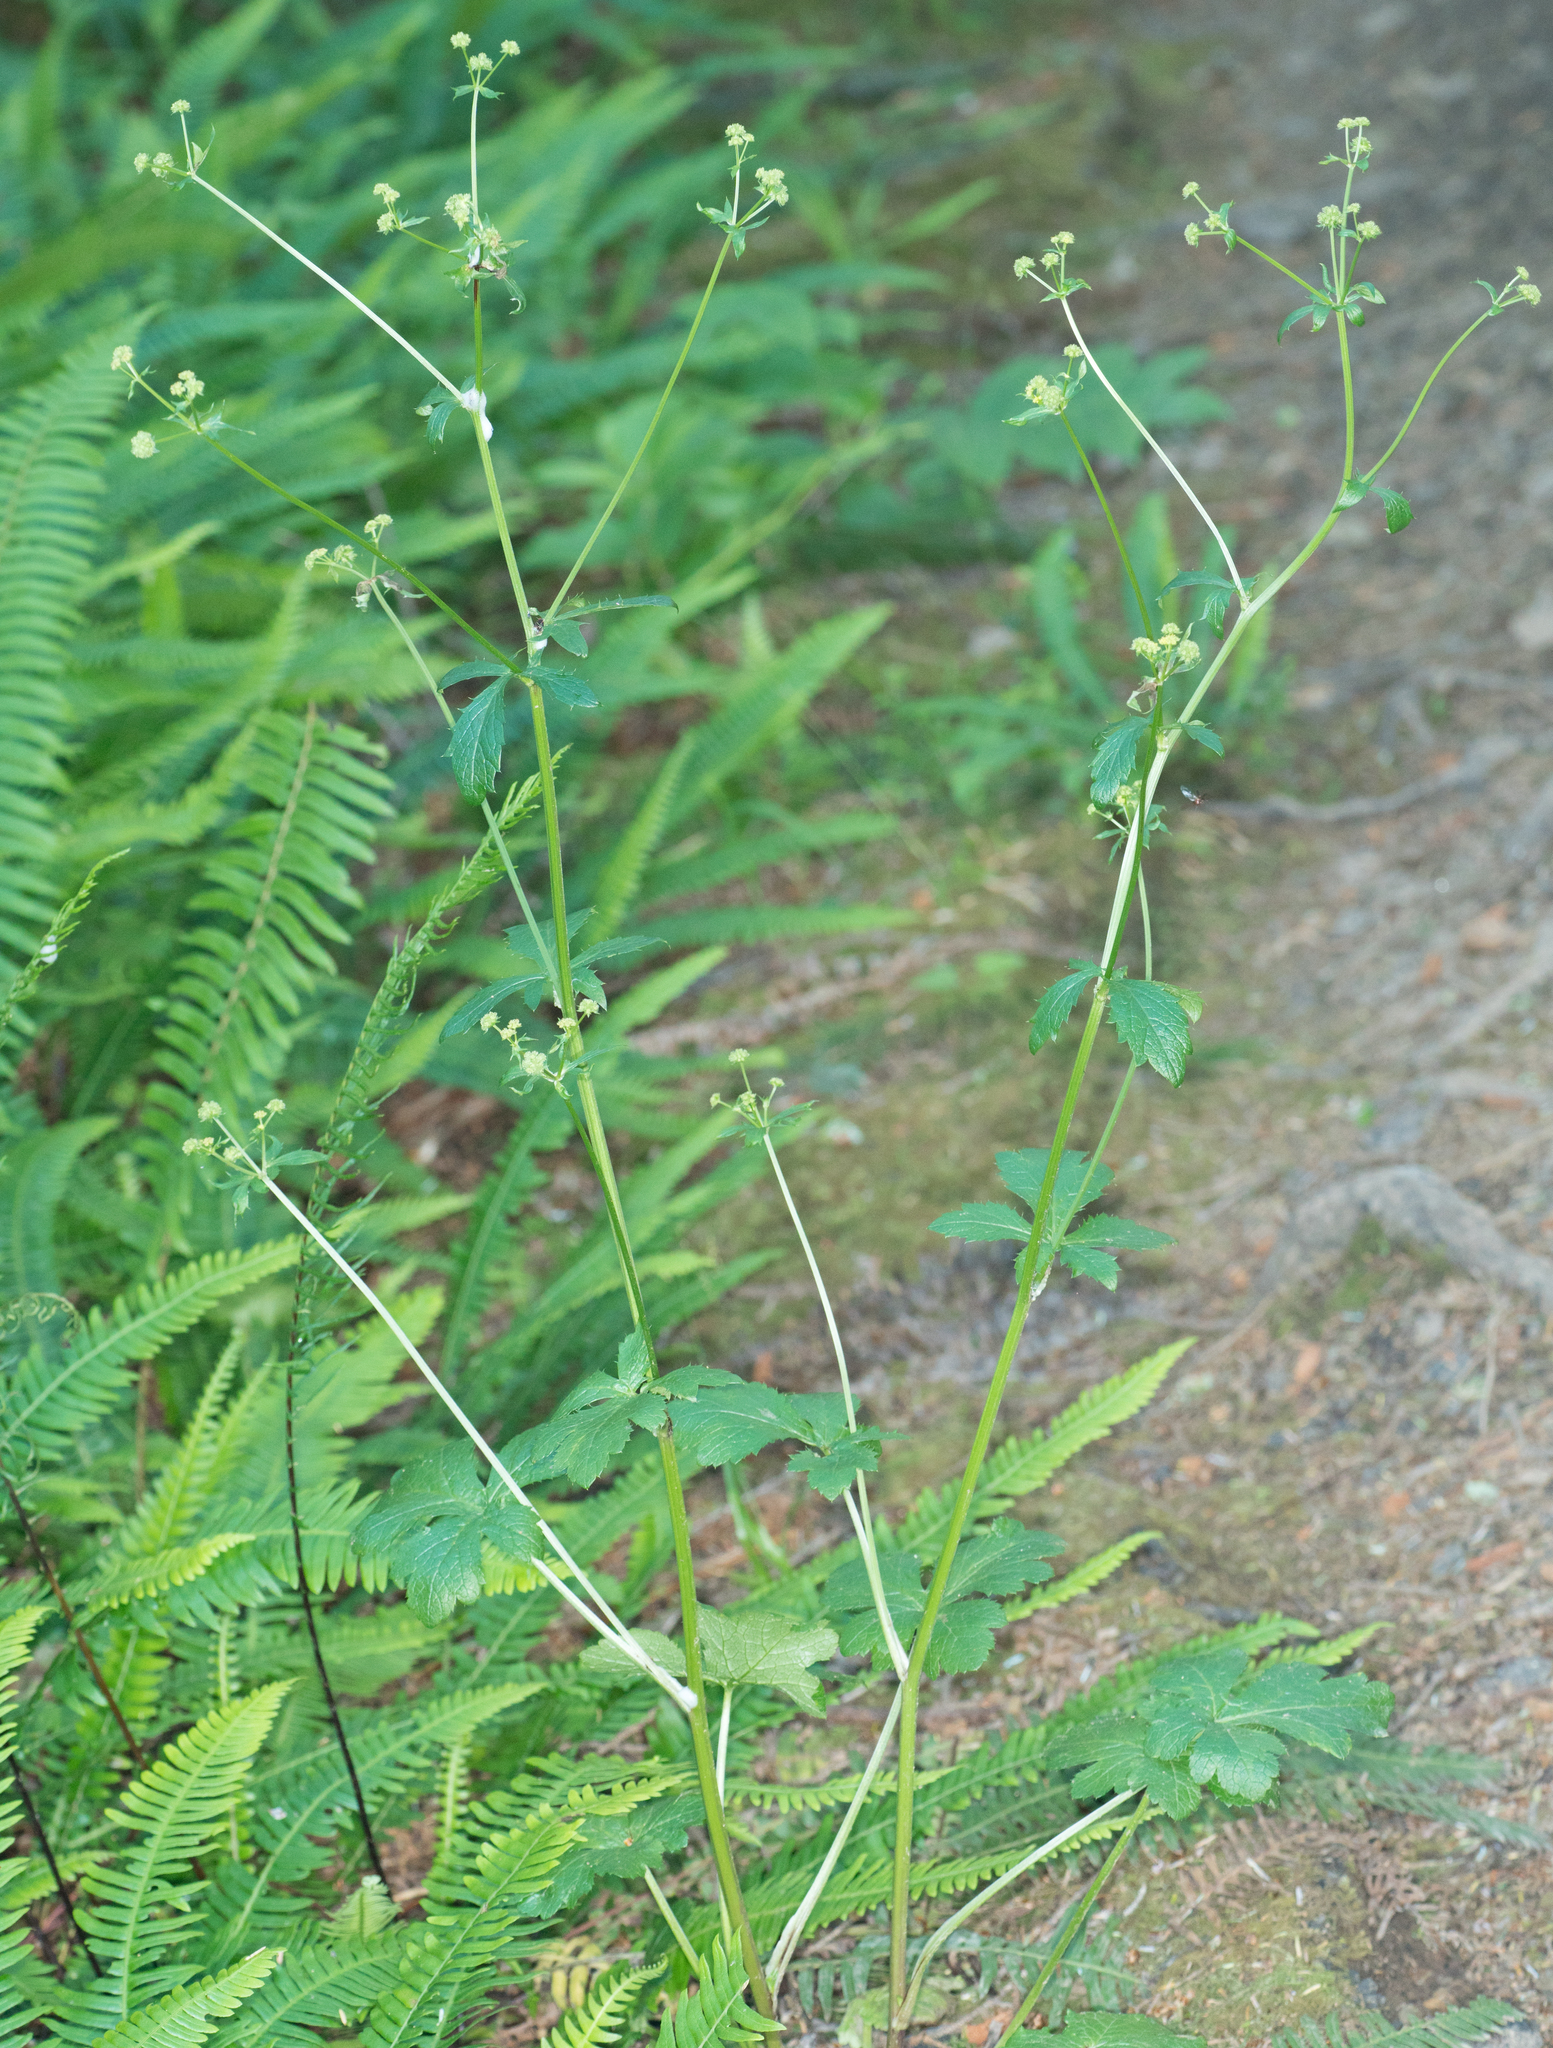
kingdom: Plantae
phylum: Tracheophyta
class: Magnoliopsida
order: Apiales
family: Apiaceae
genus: Sanicula
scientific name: Sanicula crassicaulis
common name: Western snakeroot
